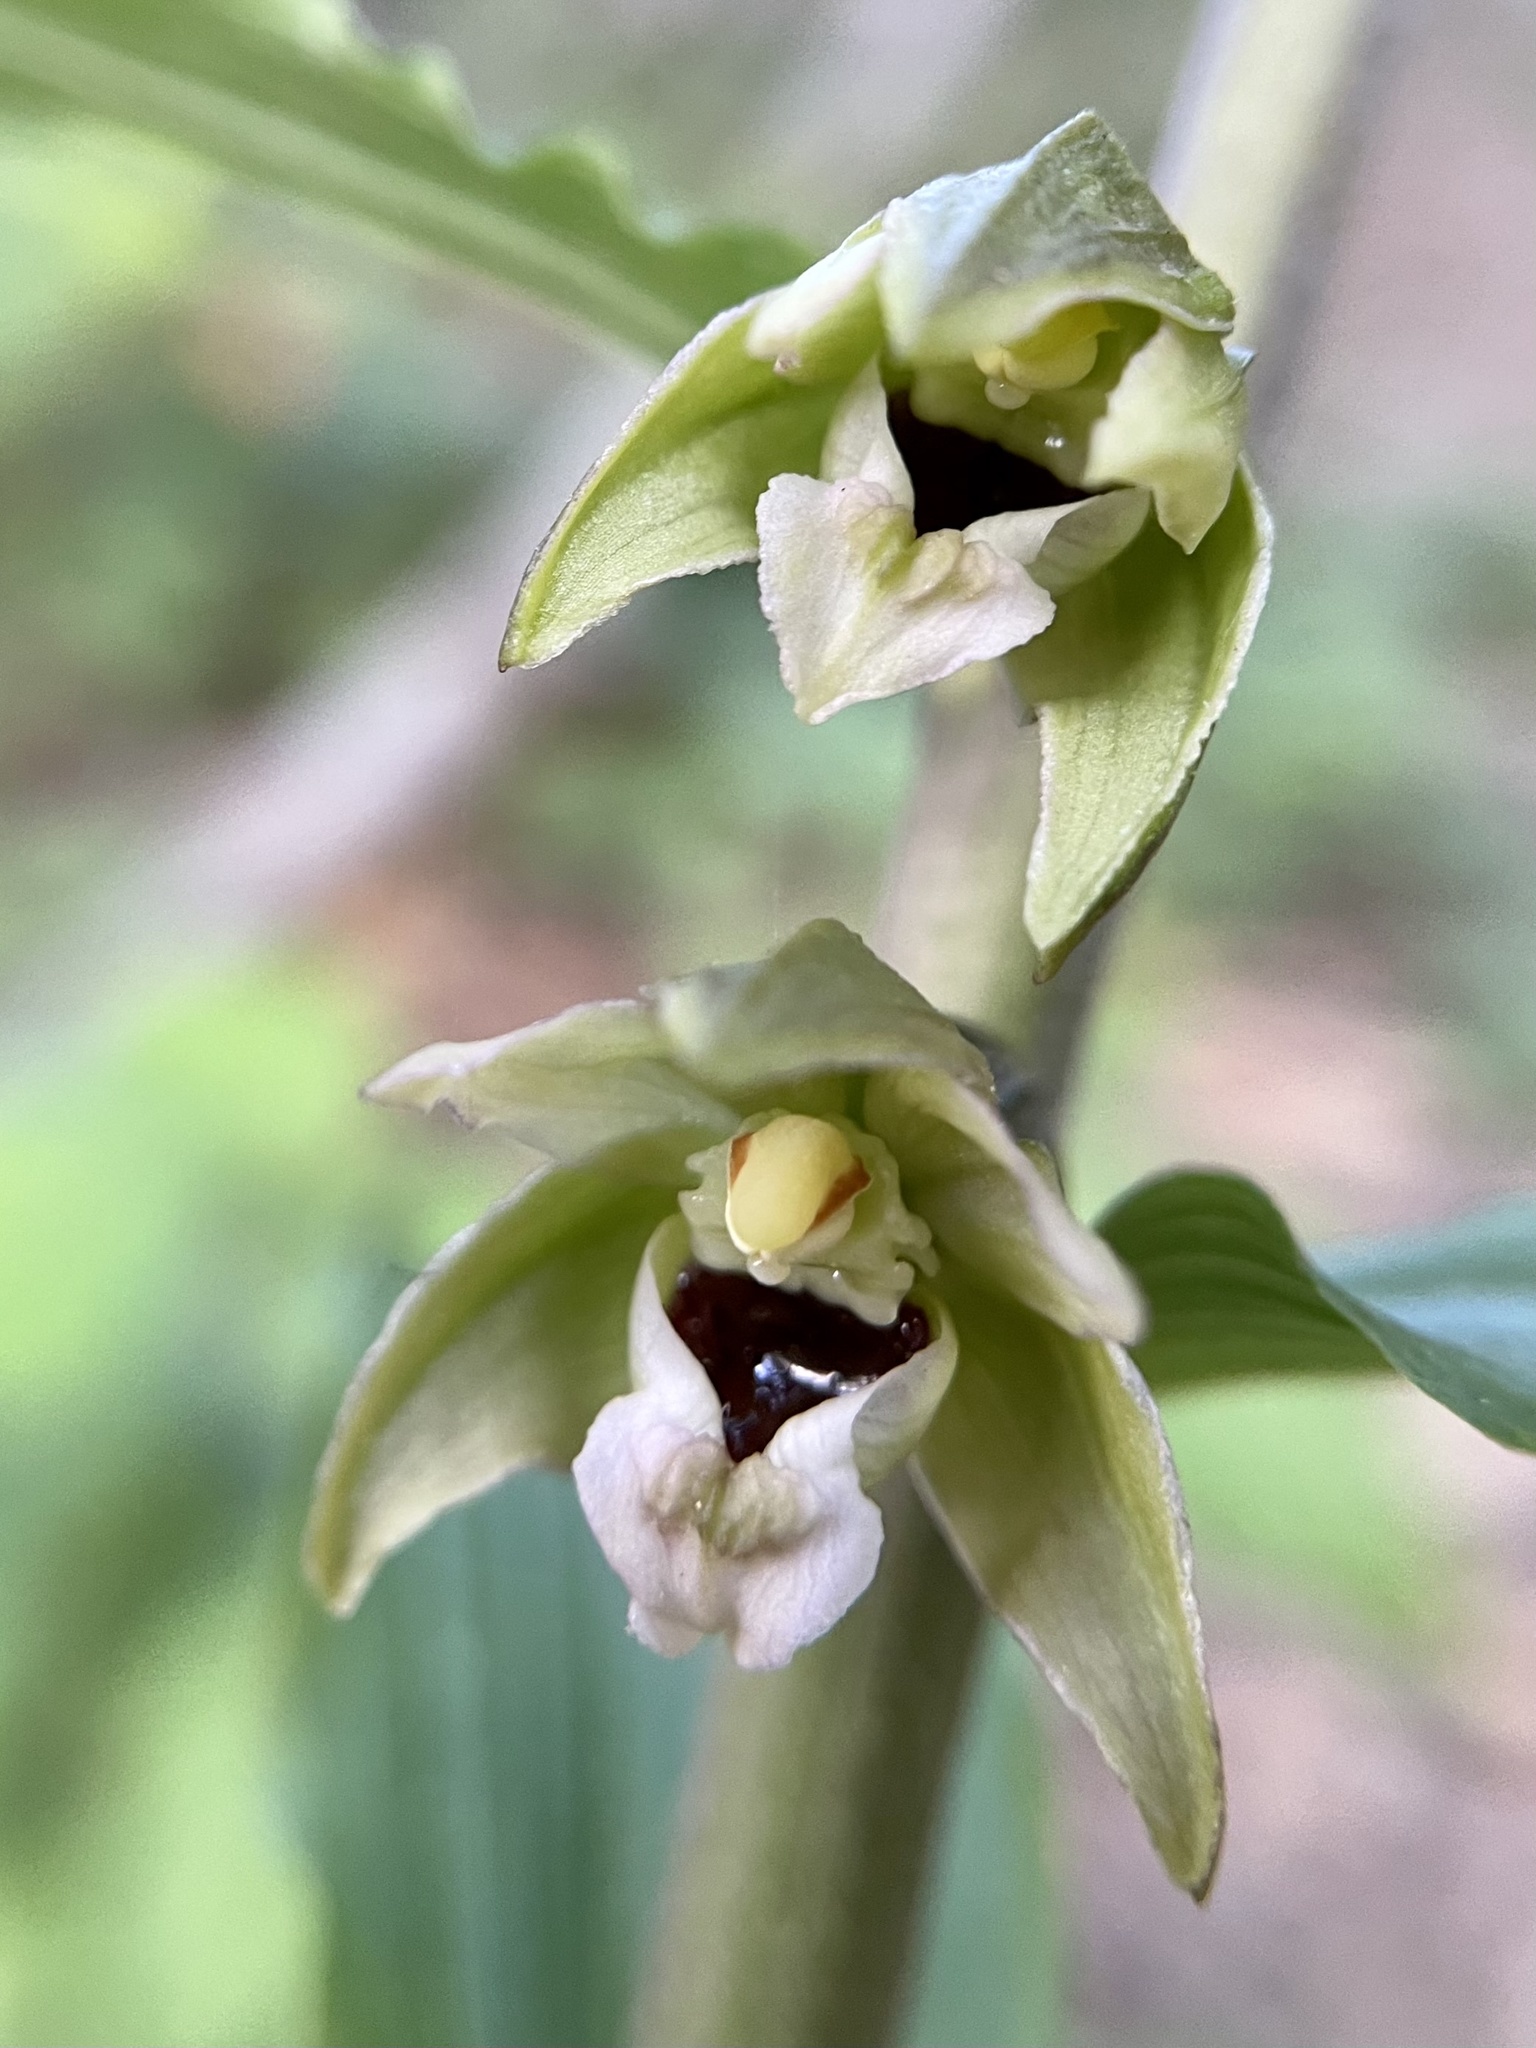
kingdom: Plantae
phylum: Tracheophyta
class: Liliopsida
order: Asparagales
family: Orchidaceae
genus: Epipactis
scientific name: Epipactis helleborine
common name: Broad-leaved helleborine
